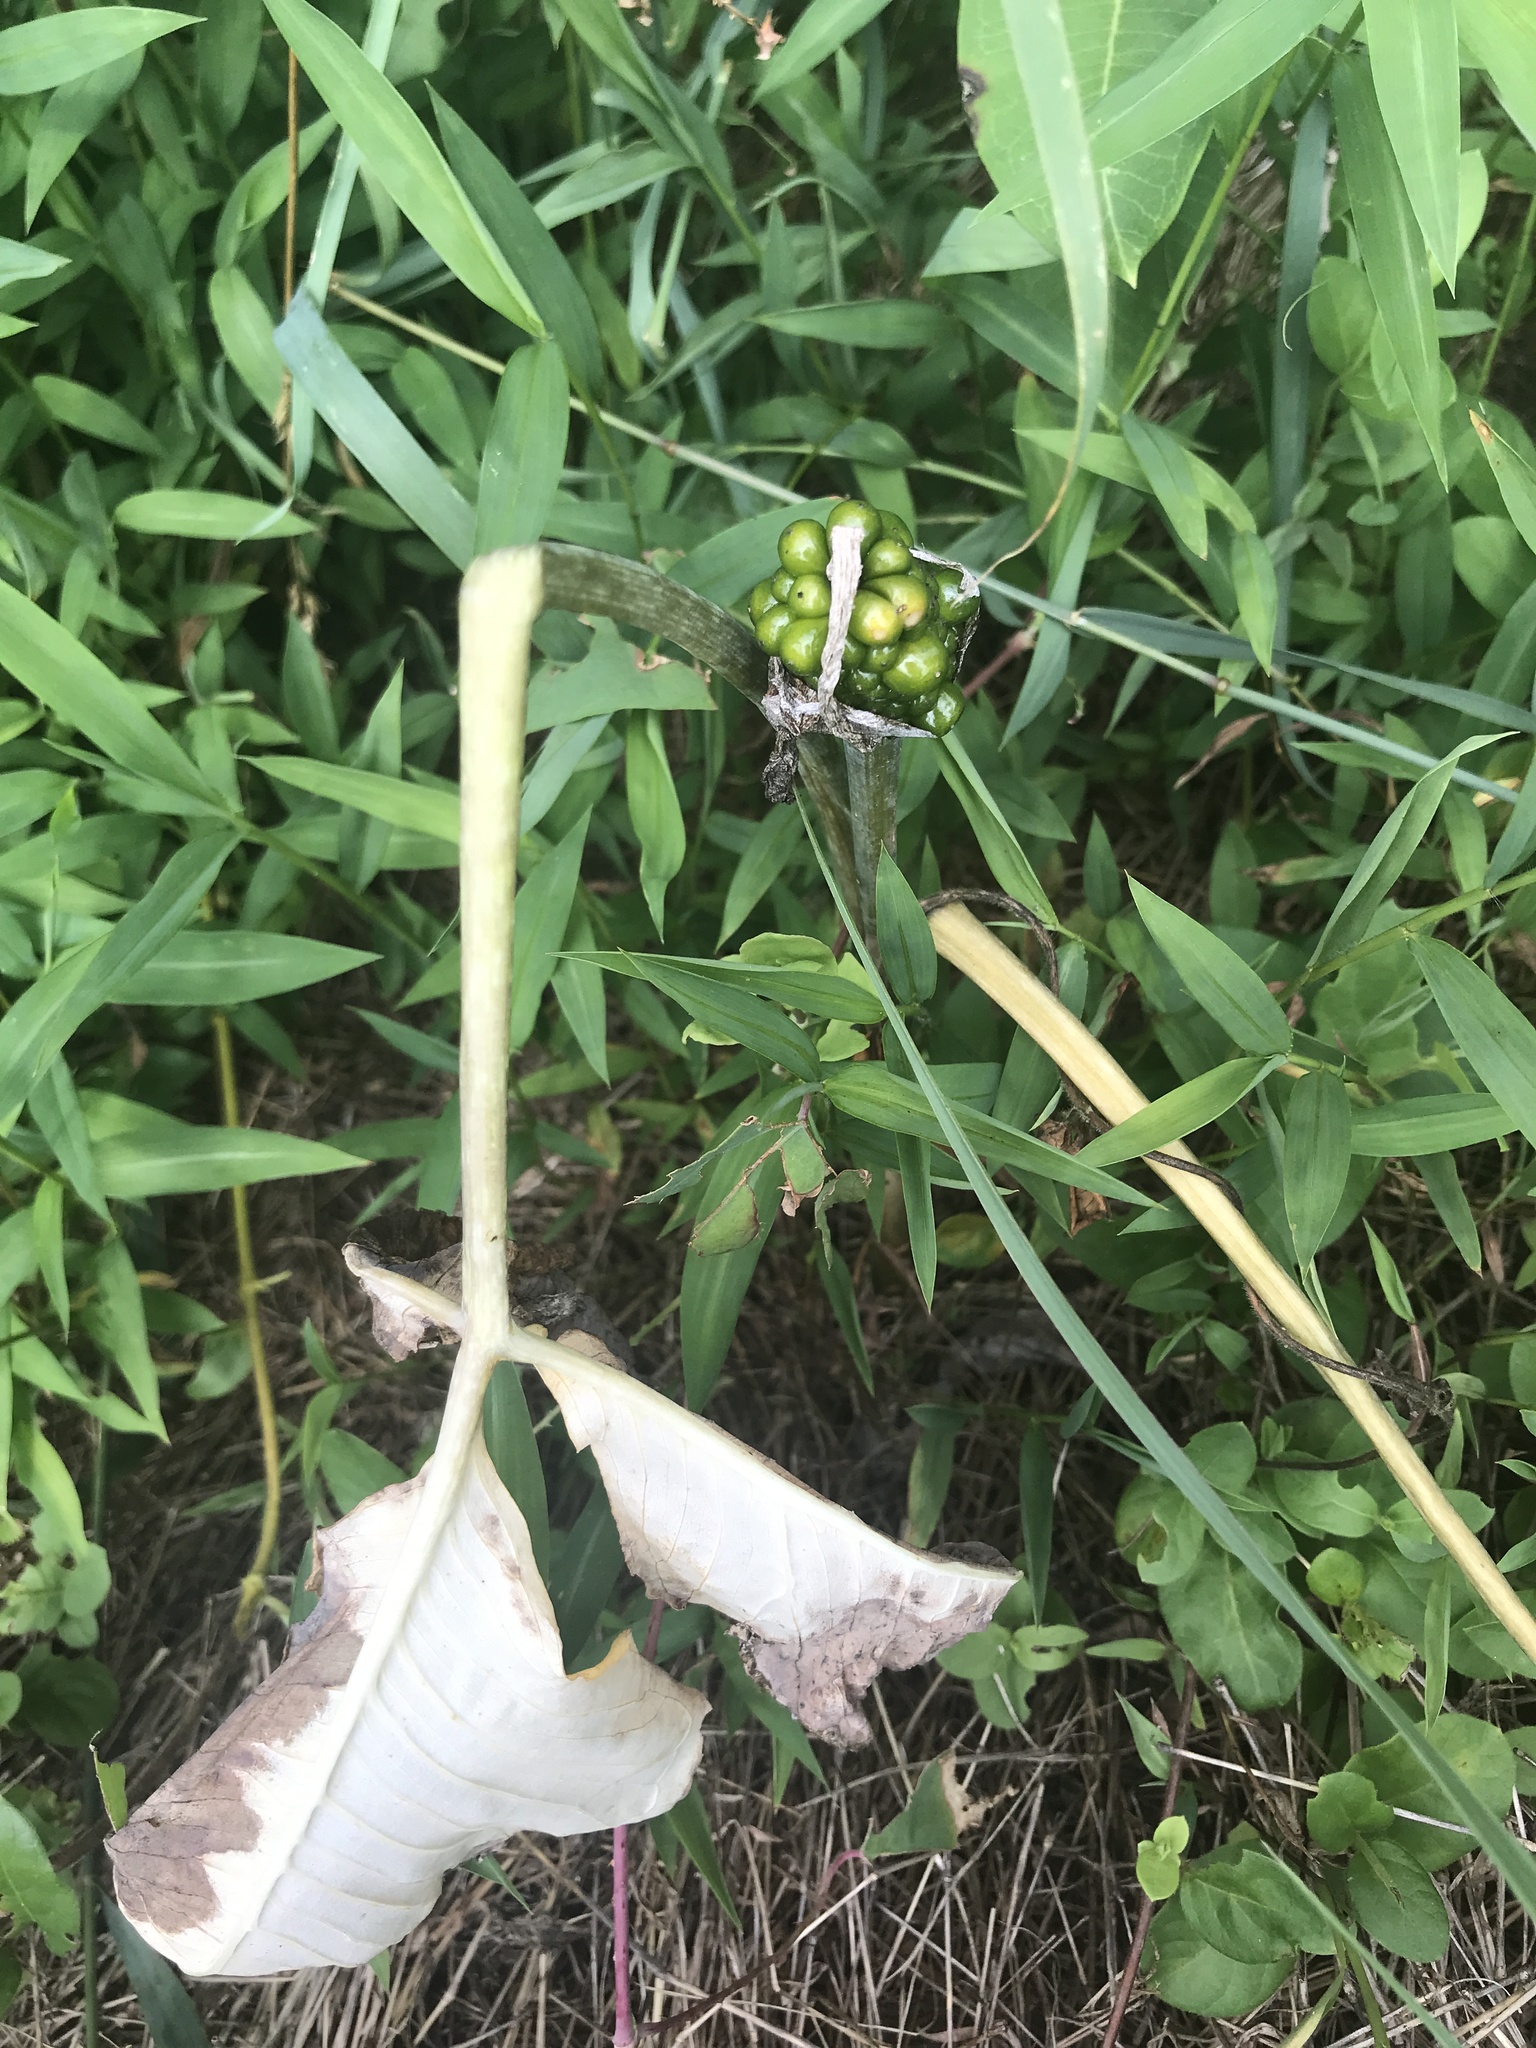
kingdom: Plantae
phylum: Tracheophyta
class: Liliopsida
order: Alismatales
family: Araceae
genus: Arisaema
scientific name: Arisaema triphyllum
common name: Jack-in-the-pulpit
